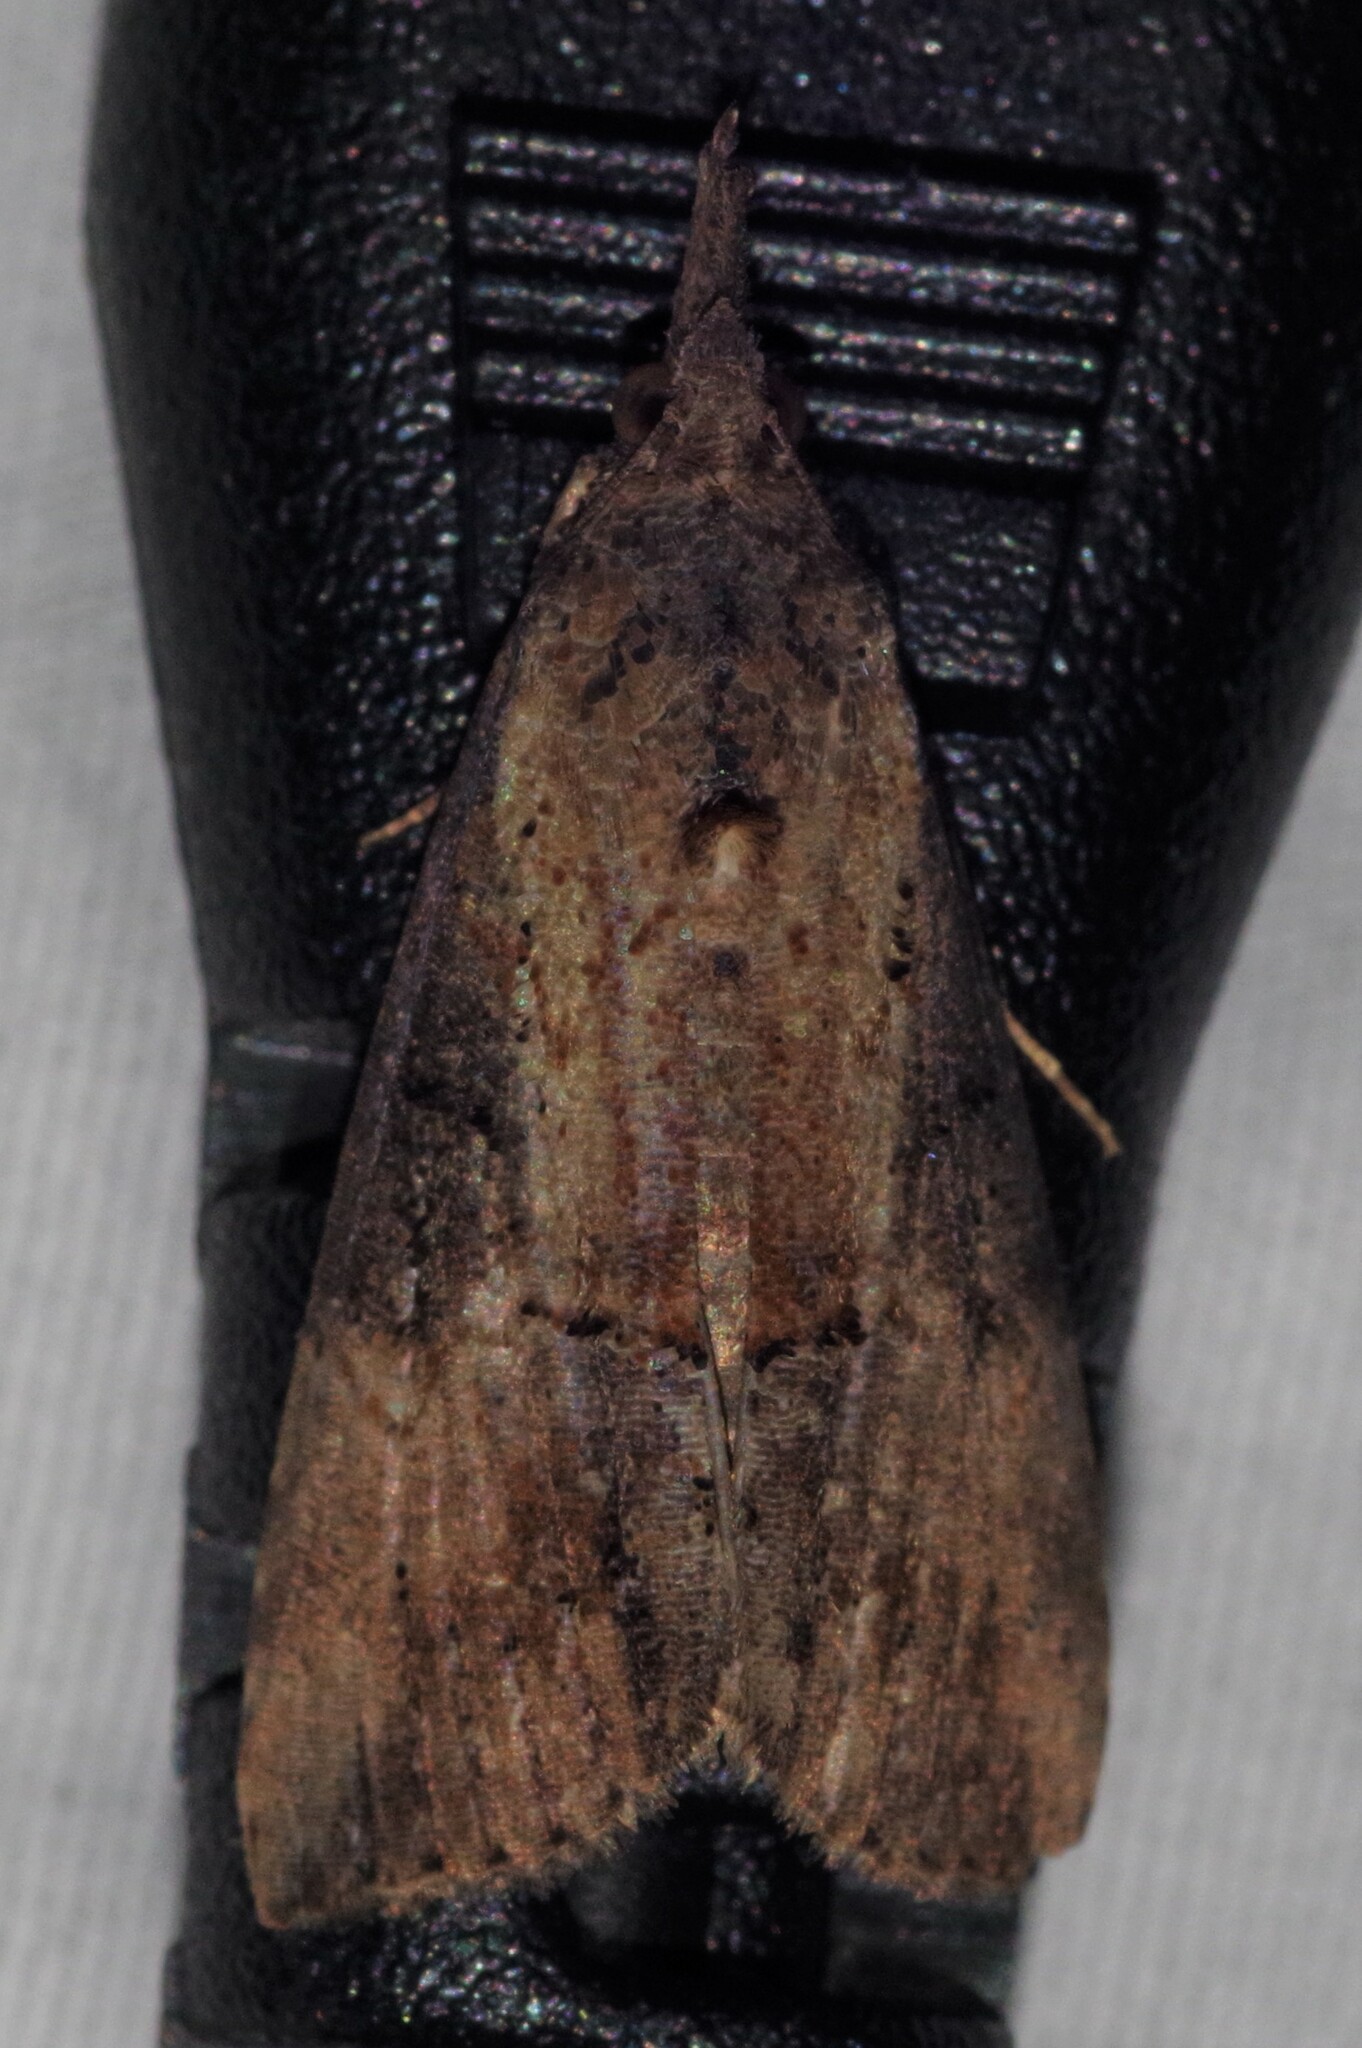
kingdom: Animalia
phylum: Arthropoda
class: Insecta
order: Lepidoptera
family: Erebidae
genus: Hypena
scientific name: Hypena scabra
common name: Green cloverworm
